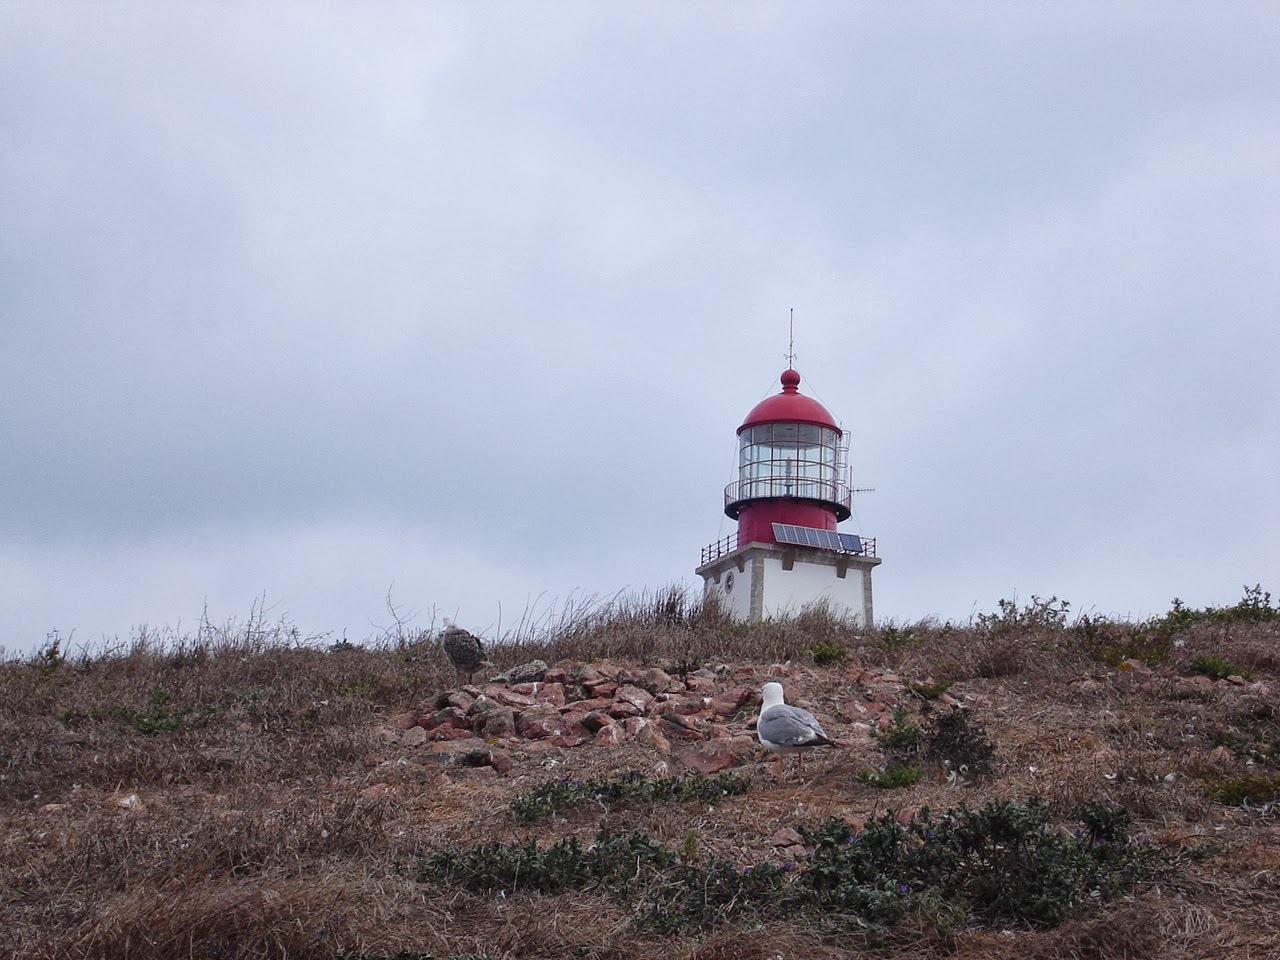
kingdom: Animalia
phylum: Chordata
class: Aves
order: Charadriiformes
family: Laridae
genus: Larus
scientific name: Larus michahellis
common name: Yellow-legged gull
